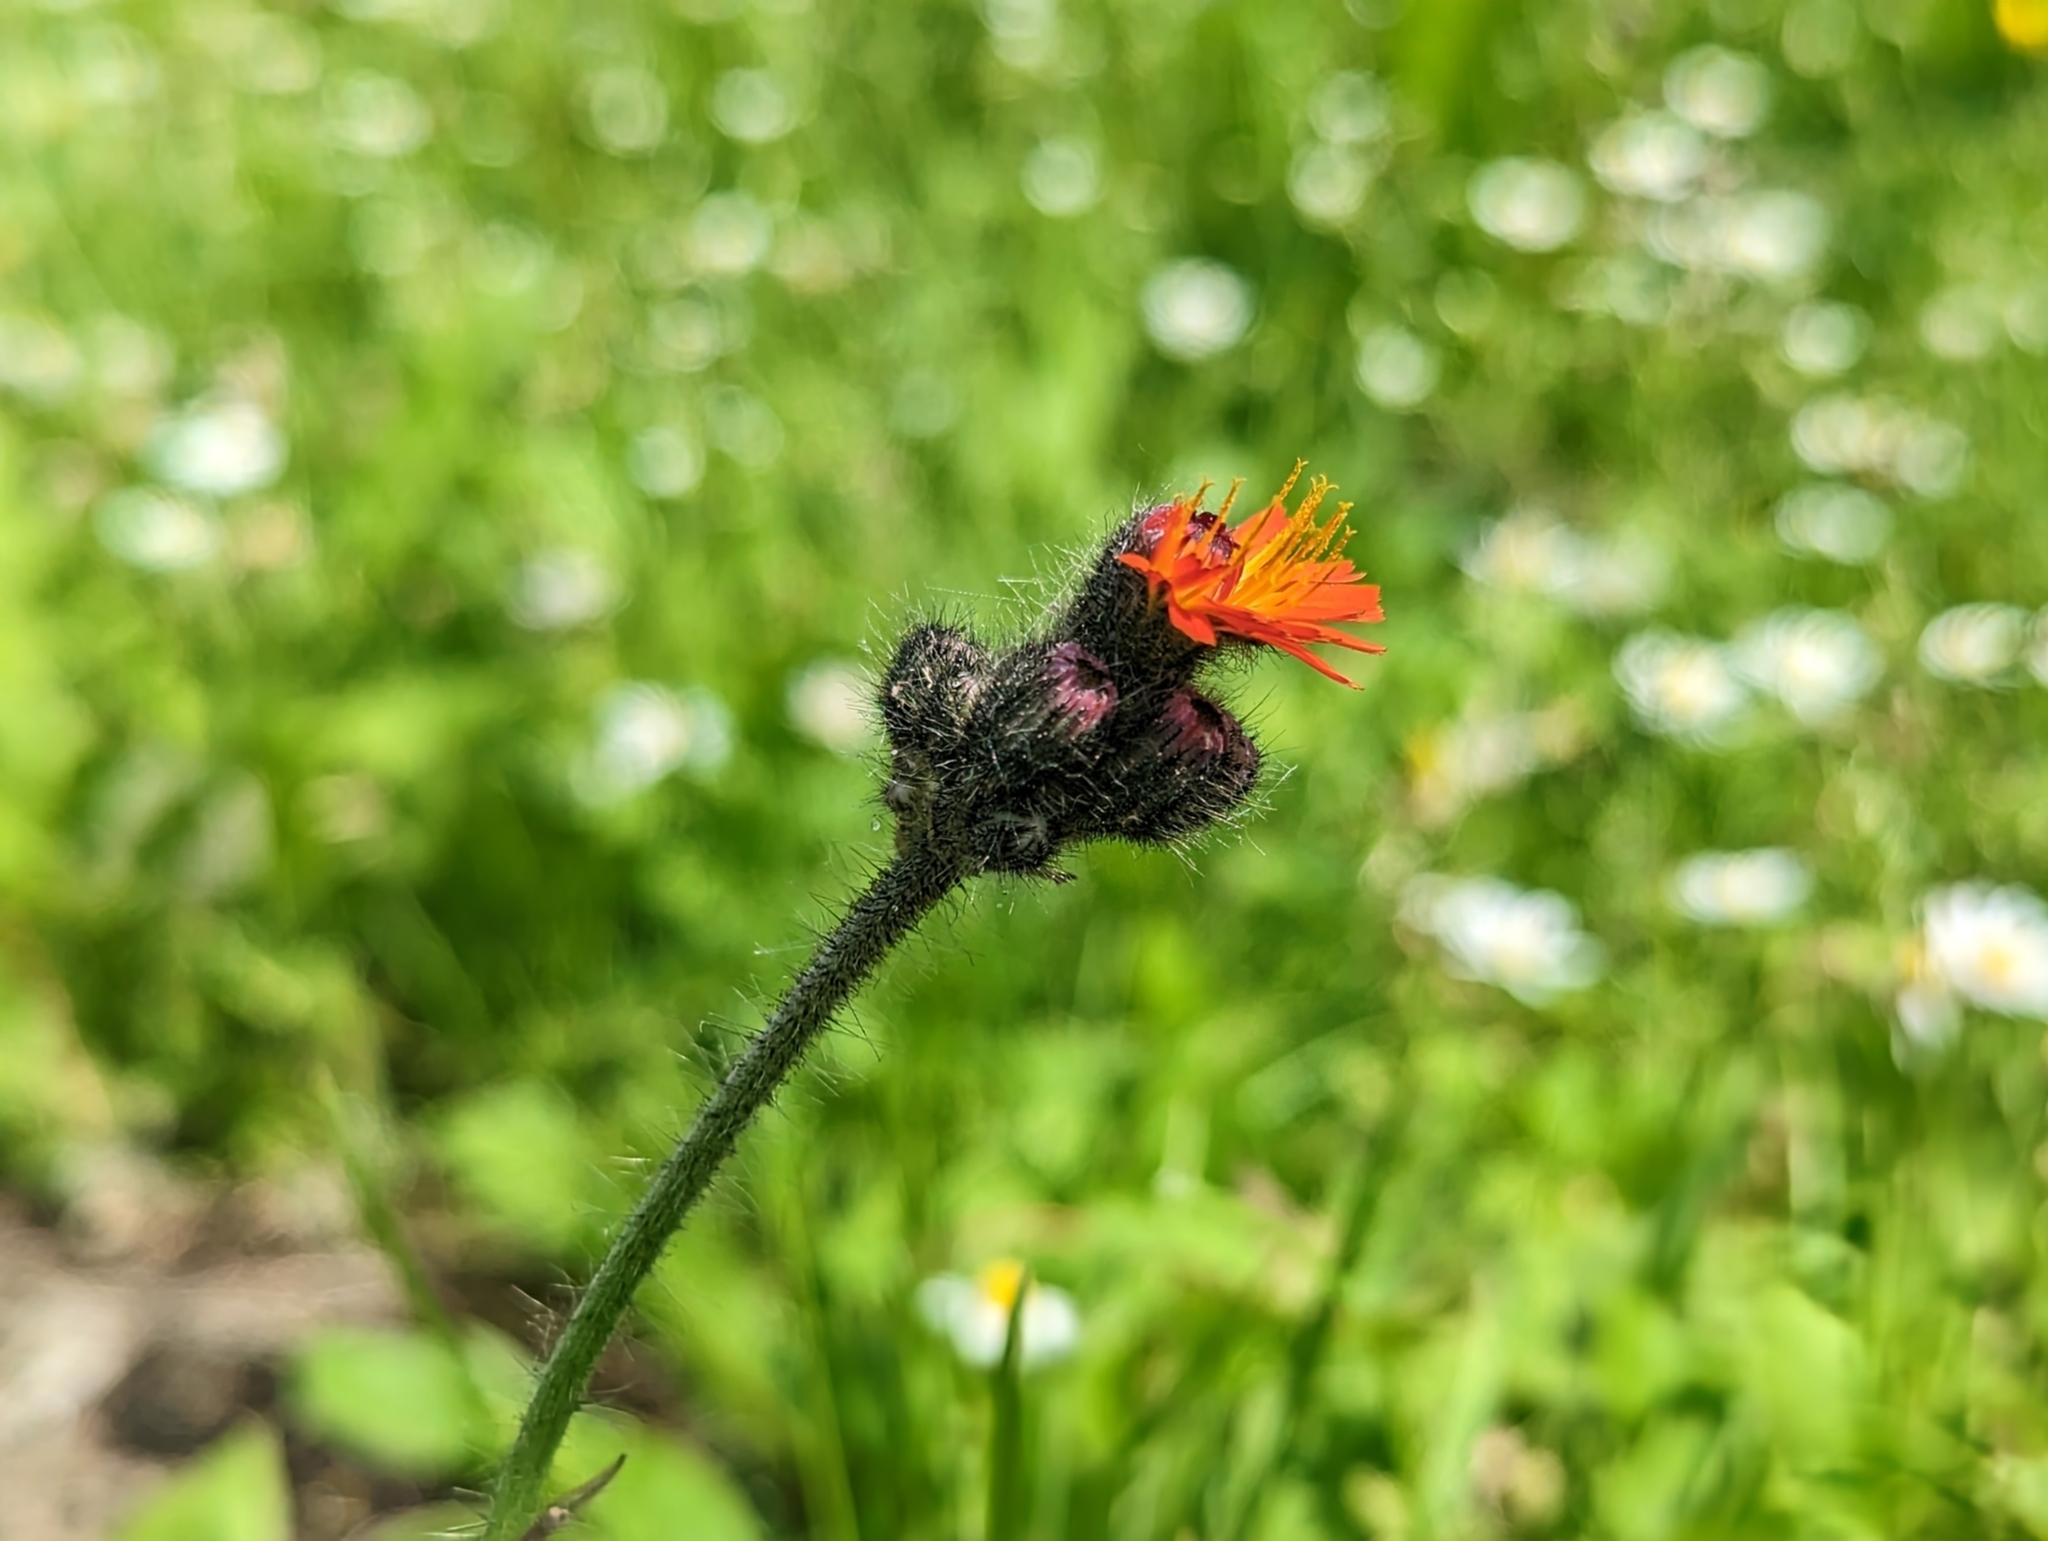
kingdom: Plantae
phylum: Tracheophyta
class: Magnoliopsida
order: Asterales
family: Asteraceae
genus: Pilosella
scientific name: Pilosella aurantiaca
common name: Fox-and-cubs
